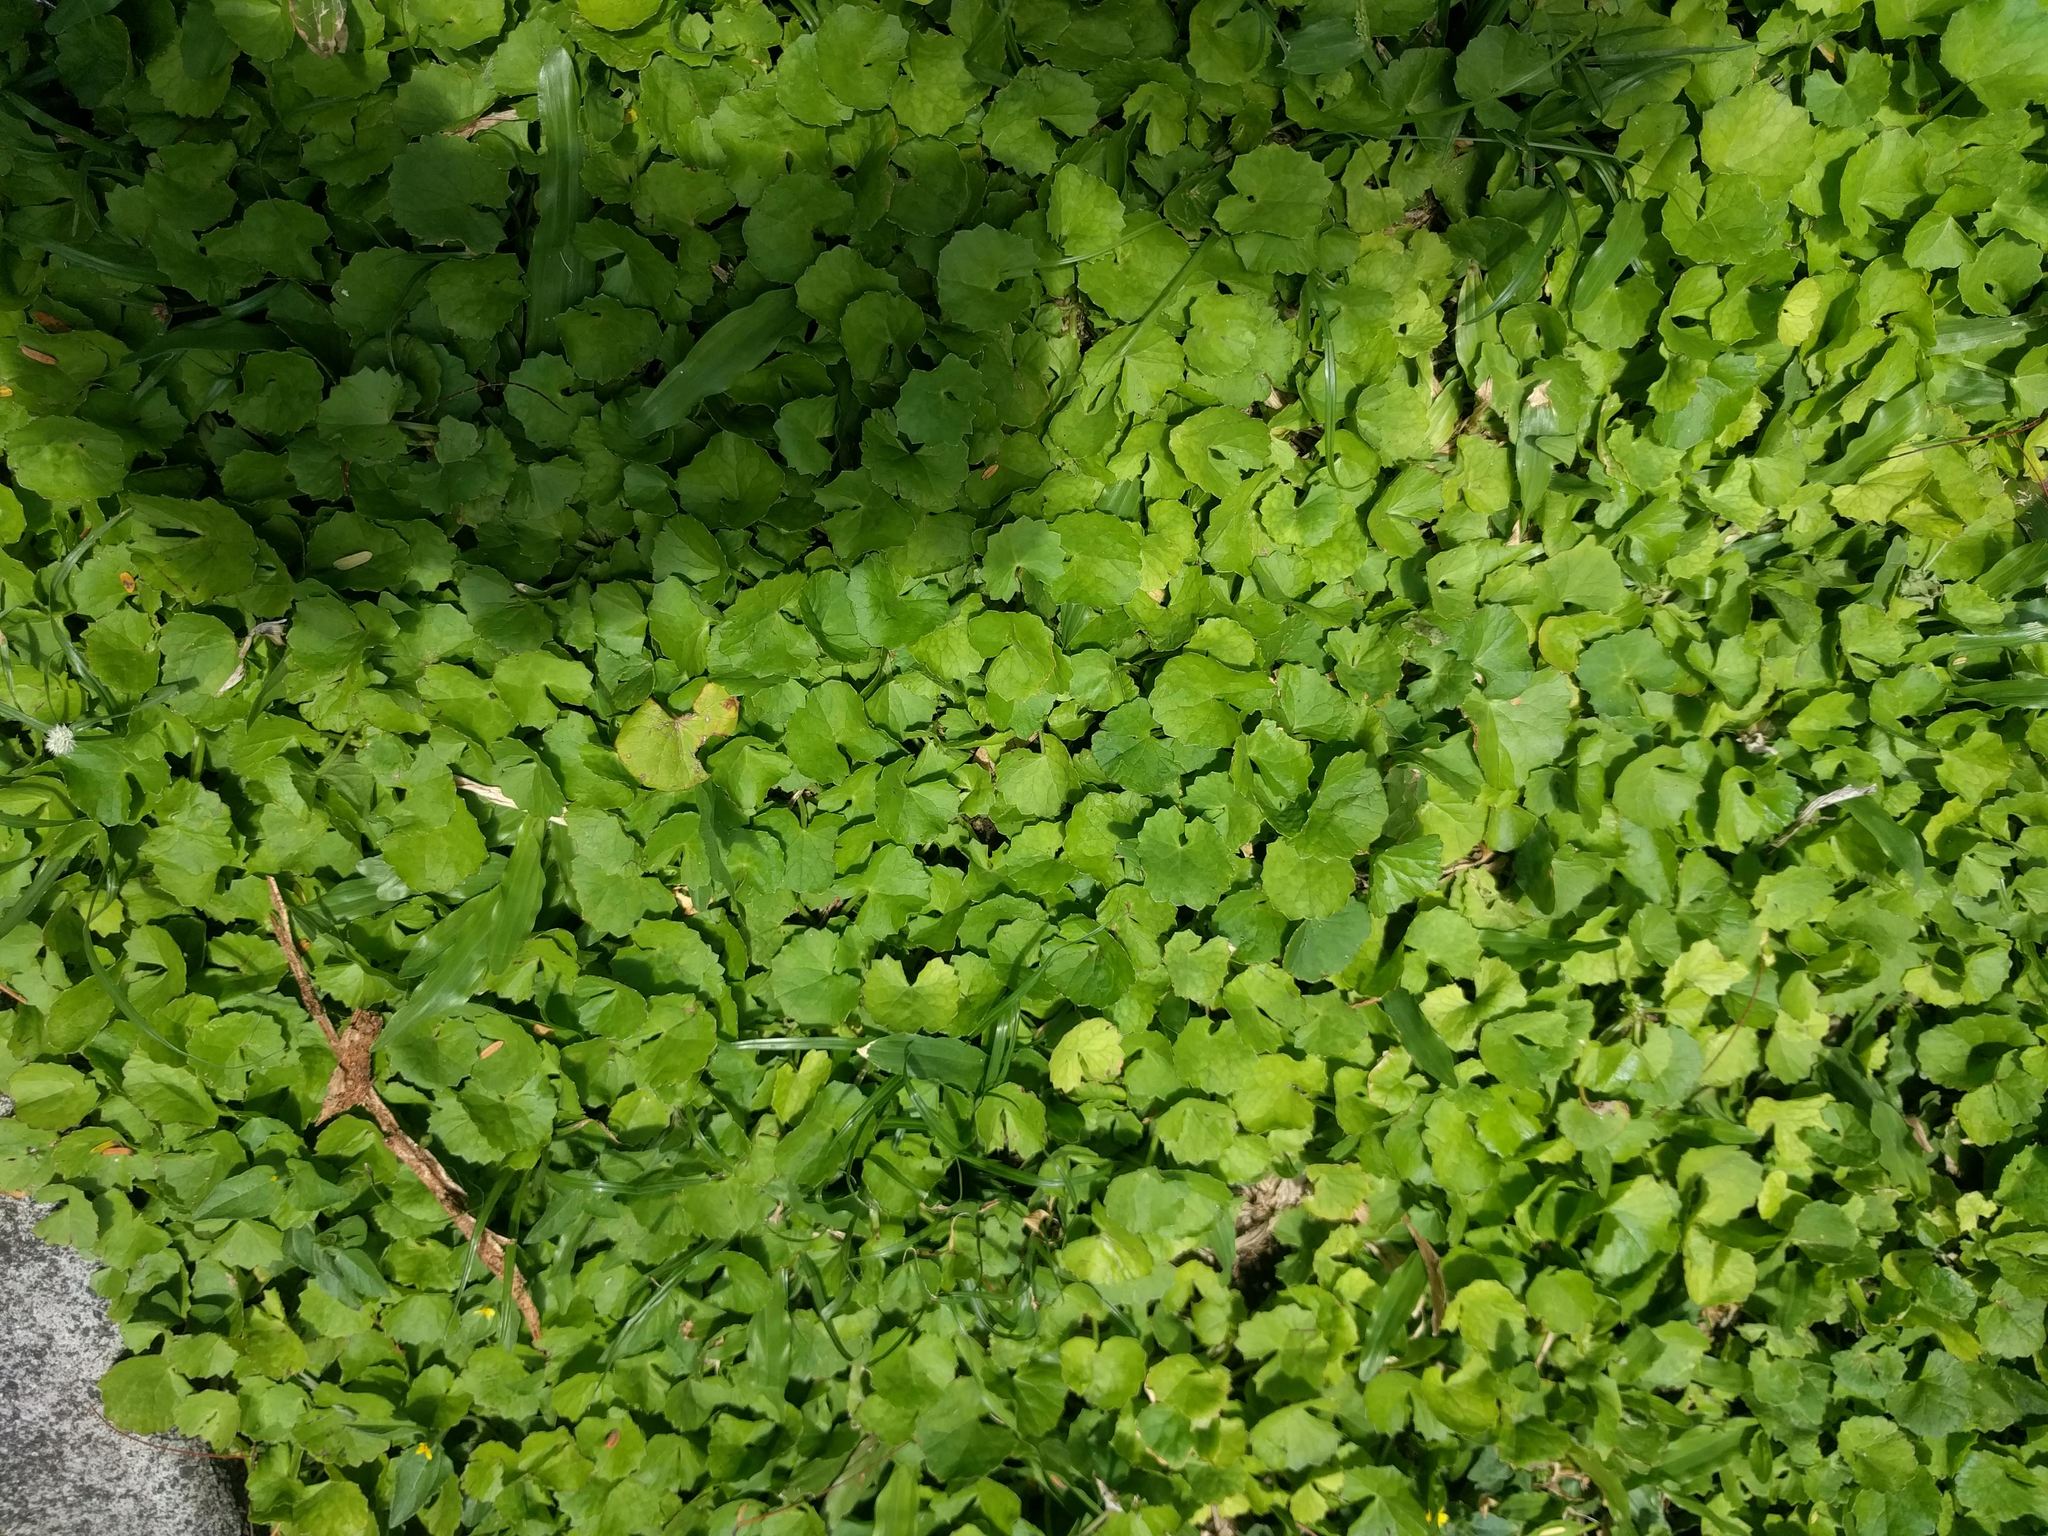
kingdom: Plantae
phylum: Tracheophyta
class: Magnoliopsida
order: Apiales
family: Apiaceae
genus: Centella
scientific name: Centella asiatica
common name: Spadeleaf
